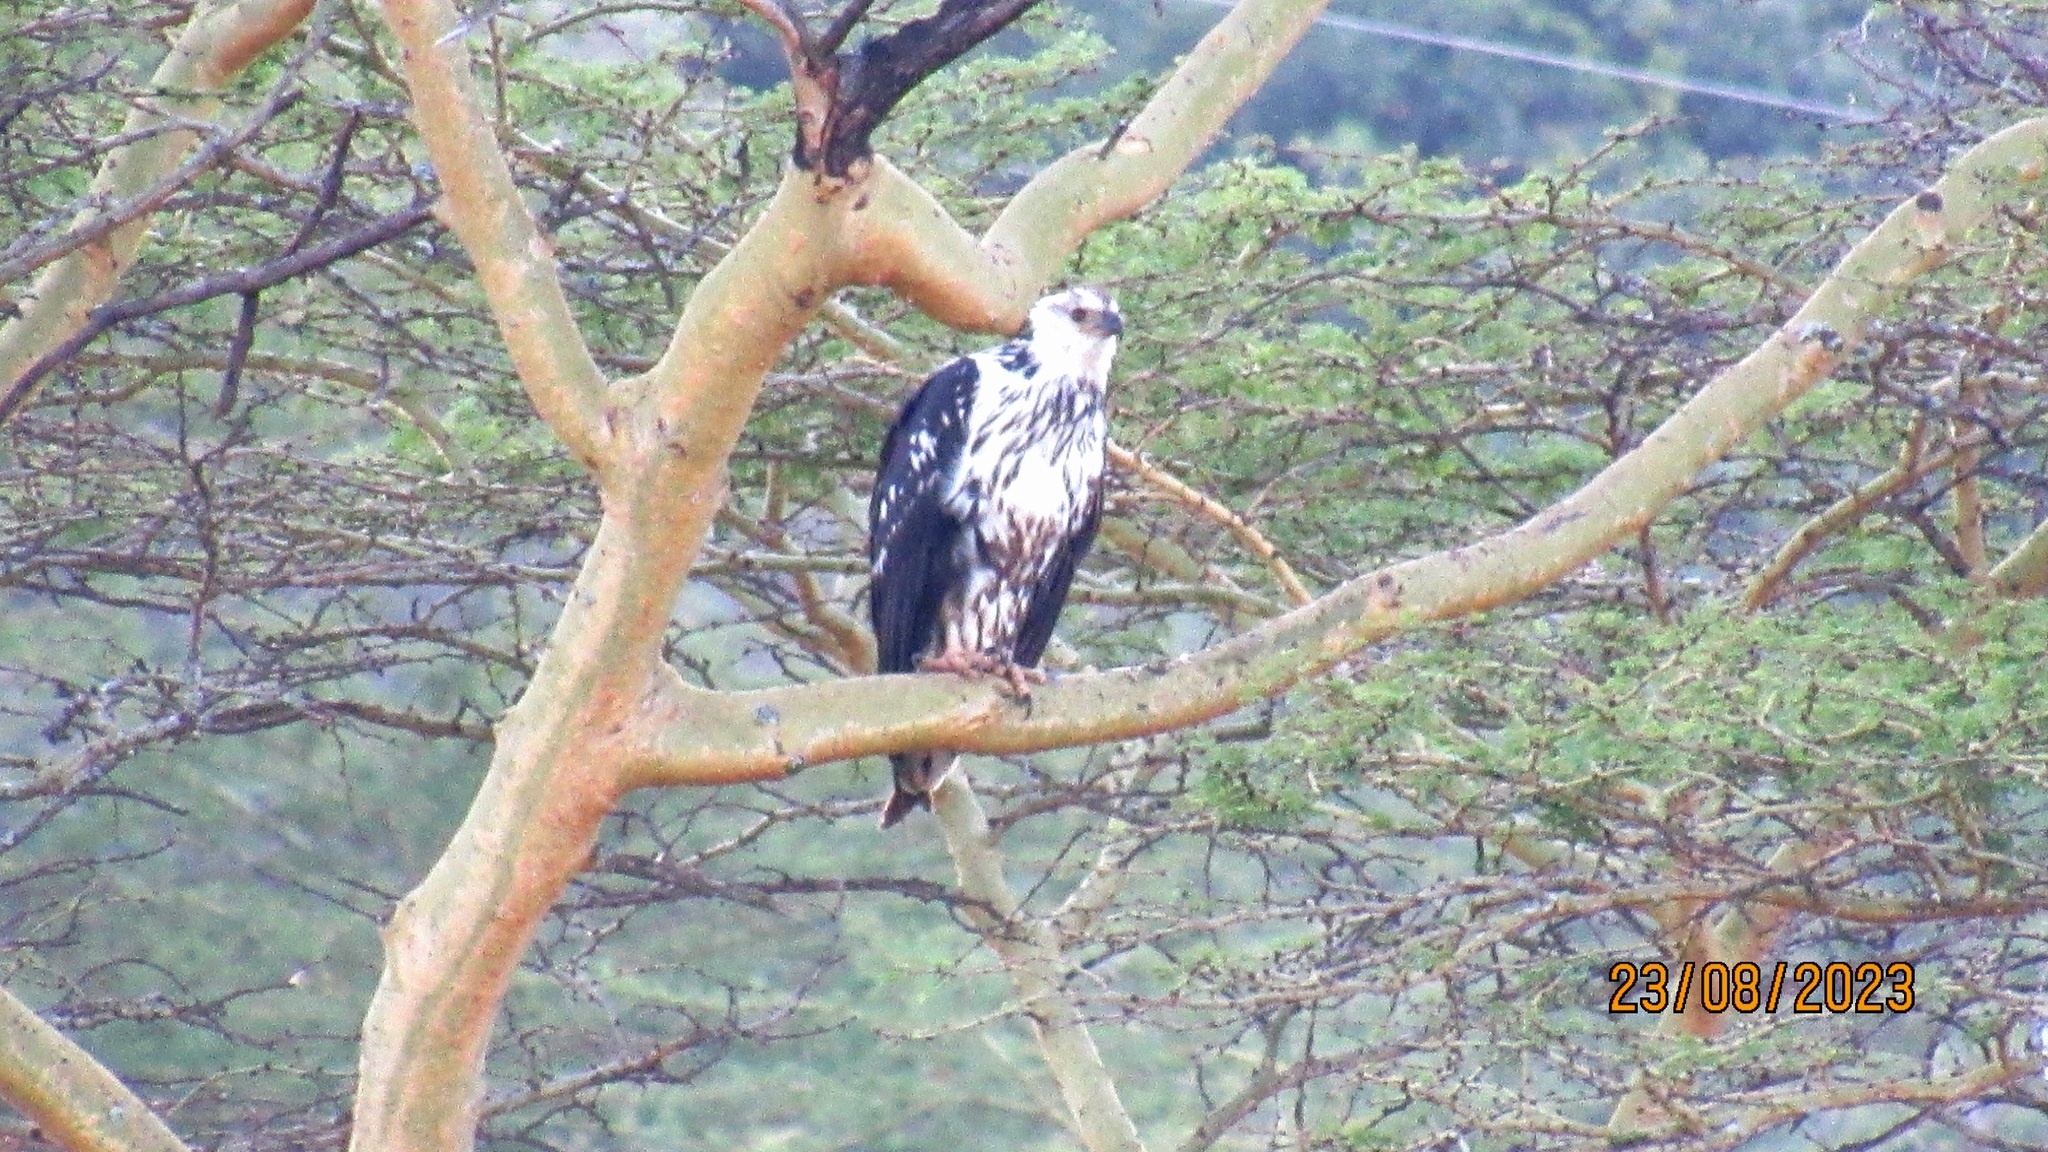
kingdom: Animalia
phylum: Chordata
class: Aves
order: Accipitriformes
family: Accipitridae
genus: Haliaeetus
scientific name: Haliaeetus vocifer
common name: African fish eagle
